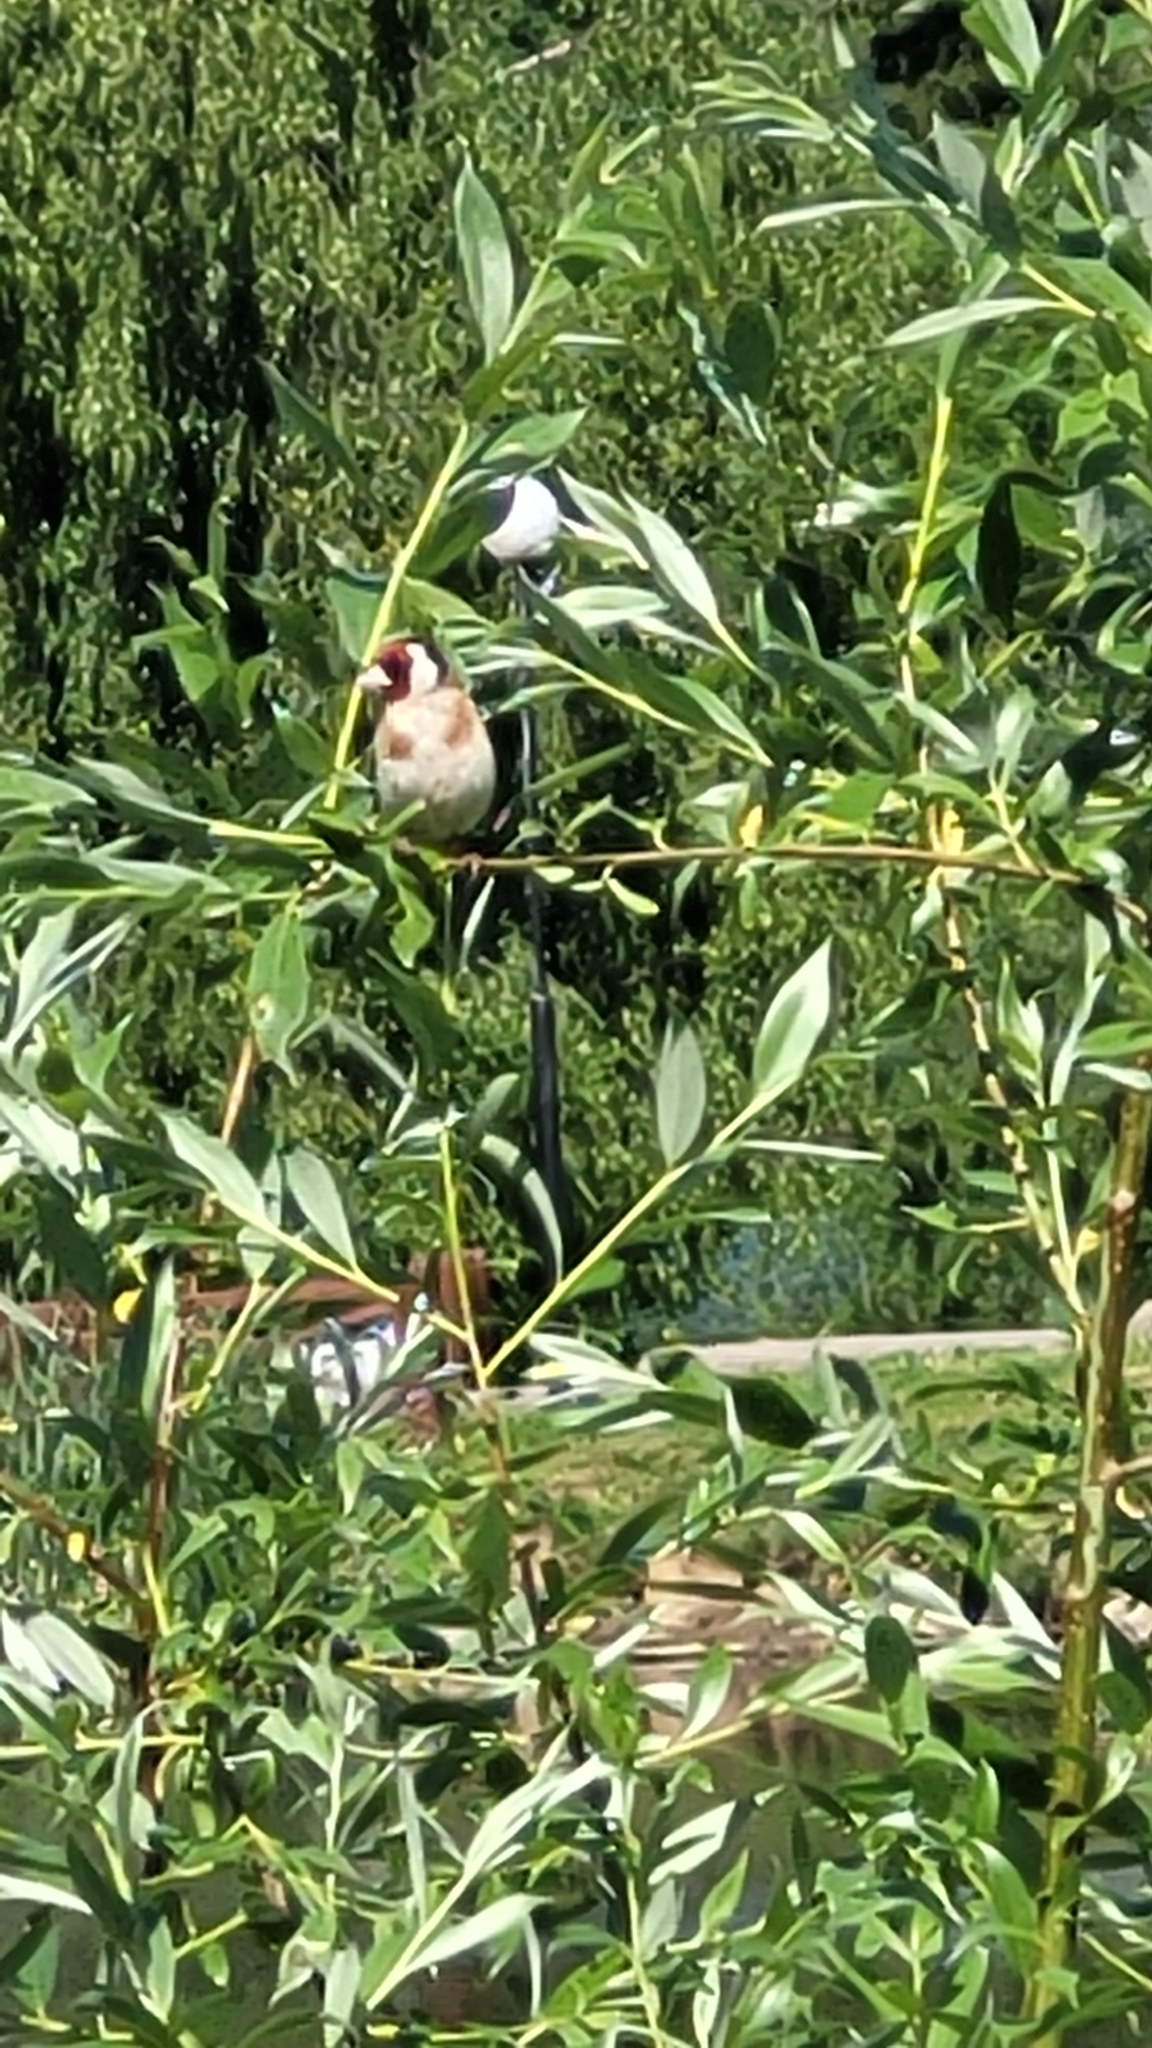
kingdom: Animalia
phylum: Chordata
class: Aves
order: Passeriformes
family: Fringillidae
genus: Carduelis
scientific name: Carduelis carduelis
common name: European goldfinch
